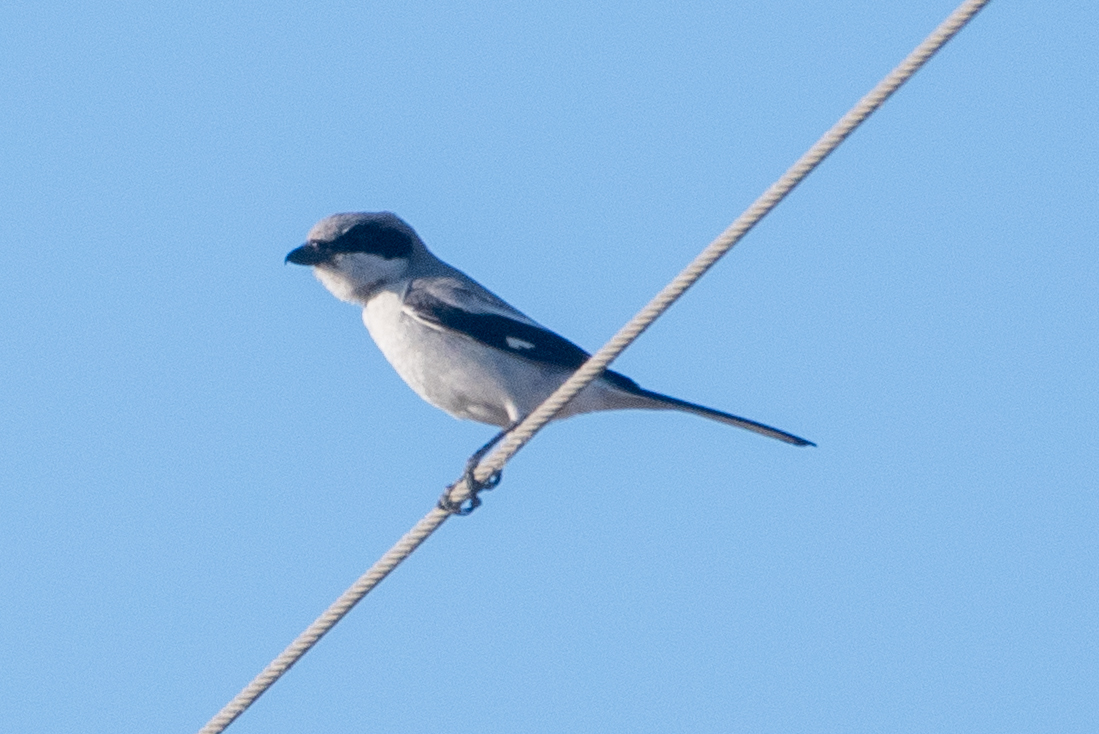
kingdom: Animalia
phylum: Chordata
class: Aves
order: Passeriformes
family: Laniidae
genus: Lanius
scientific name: Lanius ludovicianus
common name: Loggerhead shrike
